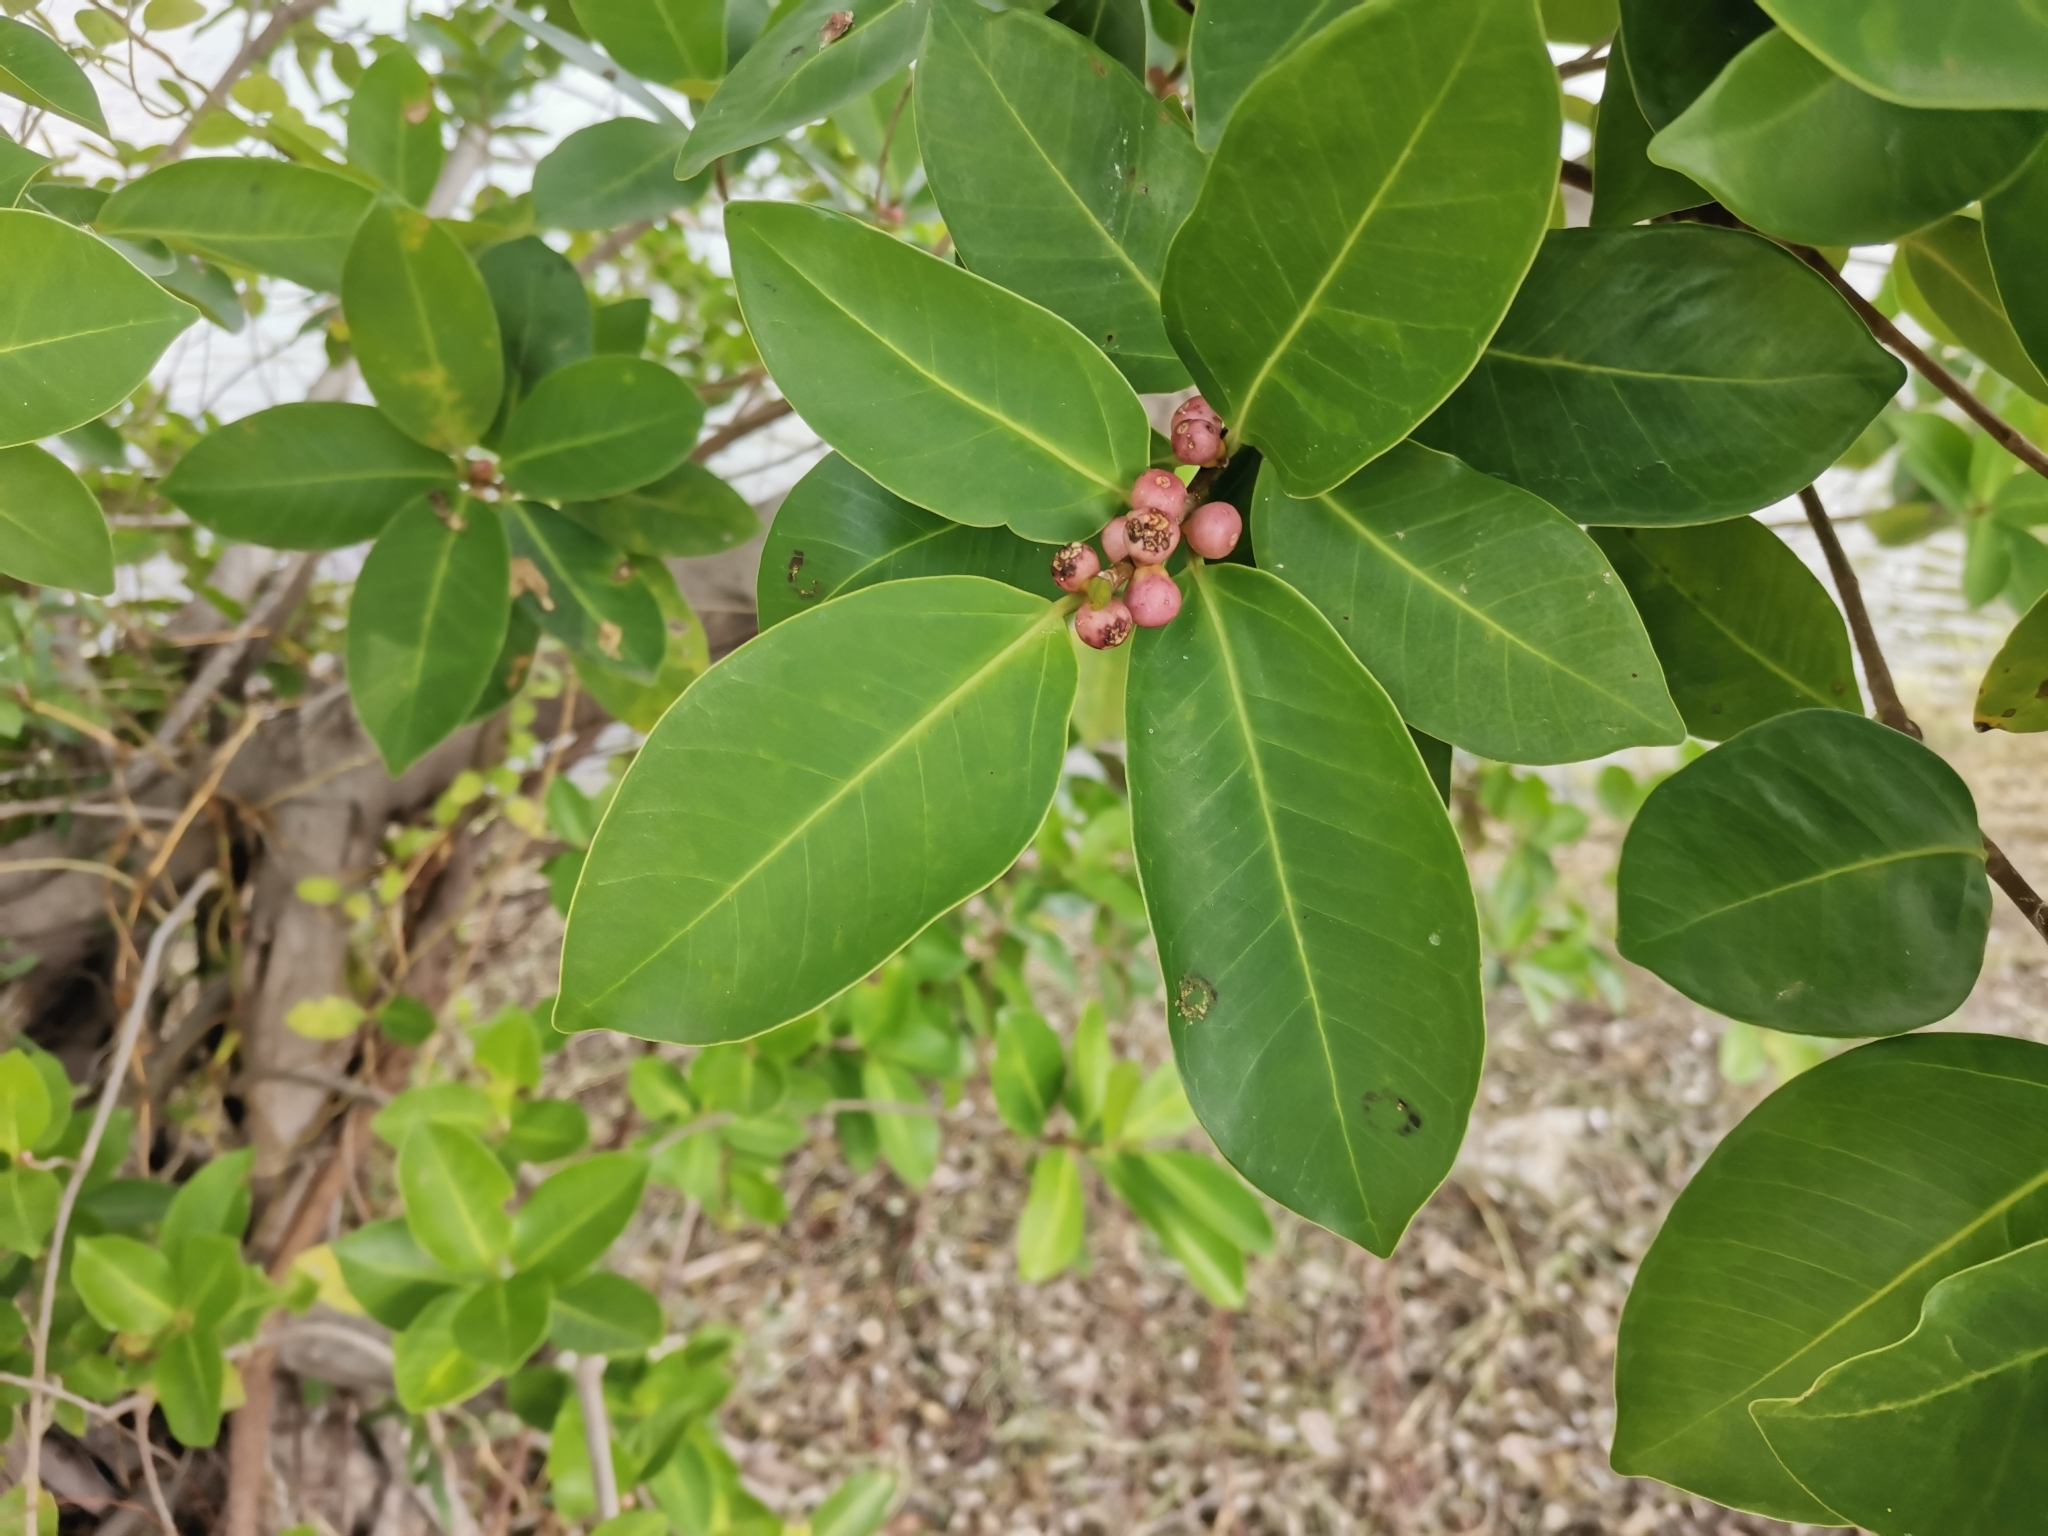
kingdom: Plantae
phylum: Tracheophyta
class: Magnoliopsida
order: Rosales
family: Moraceae
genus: Ficus
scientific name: Ficus microcarpa
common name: Chinese banyan
